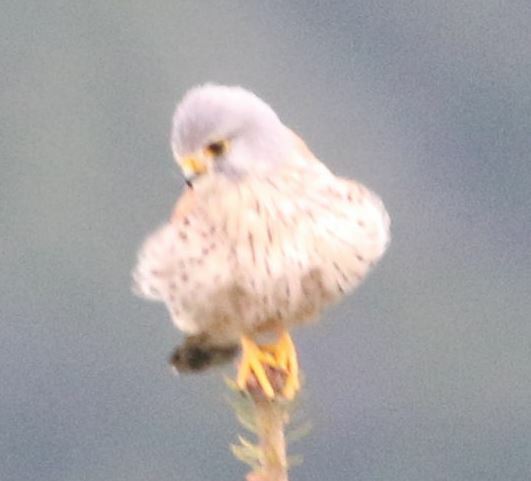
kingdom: Animalia
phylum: Chordata
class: Aves
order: Falconiformes
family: Falconidae
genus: Falco
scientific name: Falco tinnunculus
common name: Common kestrel
